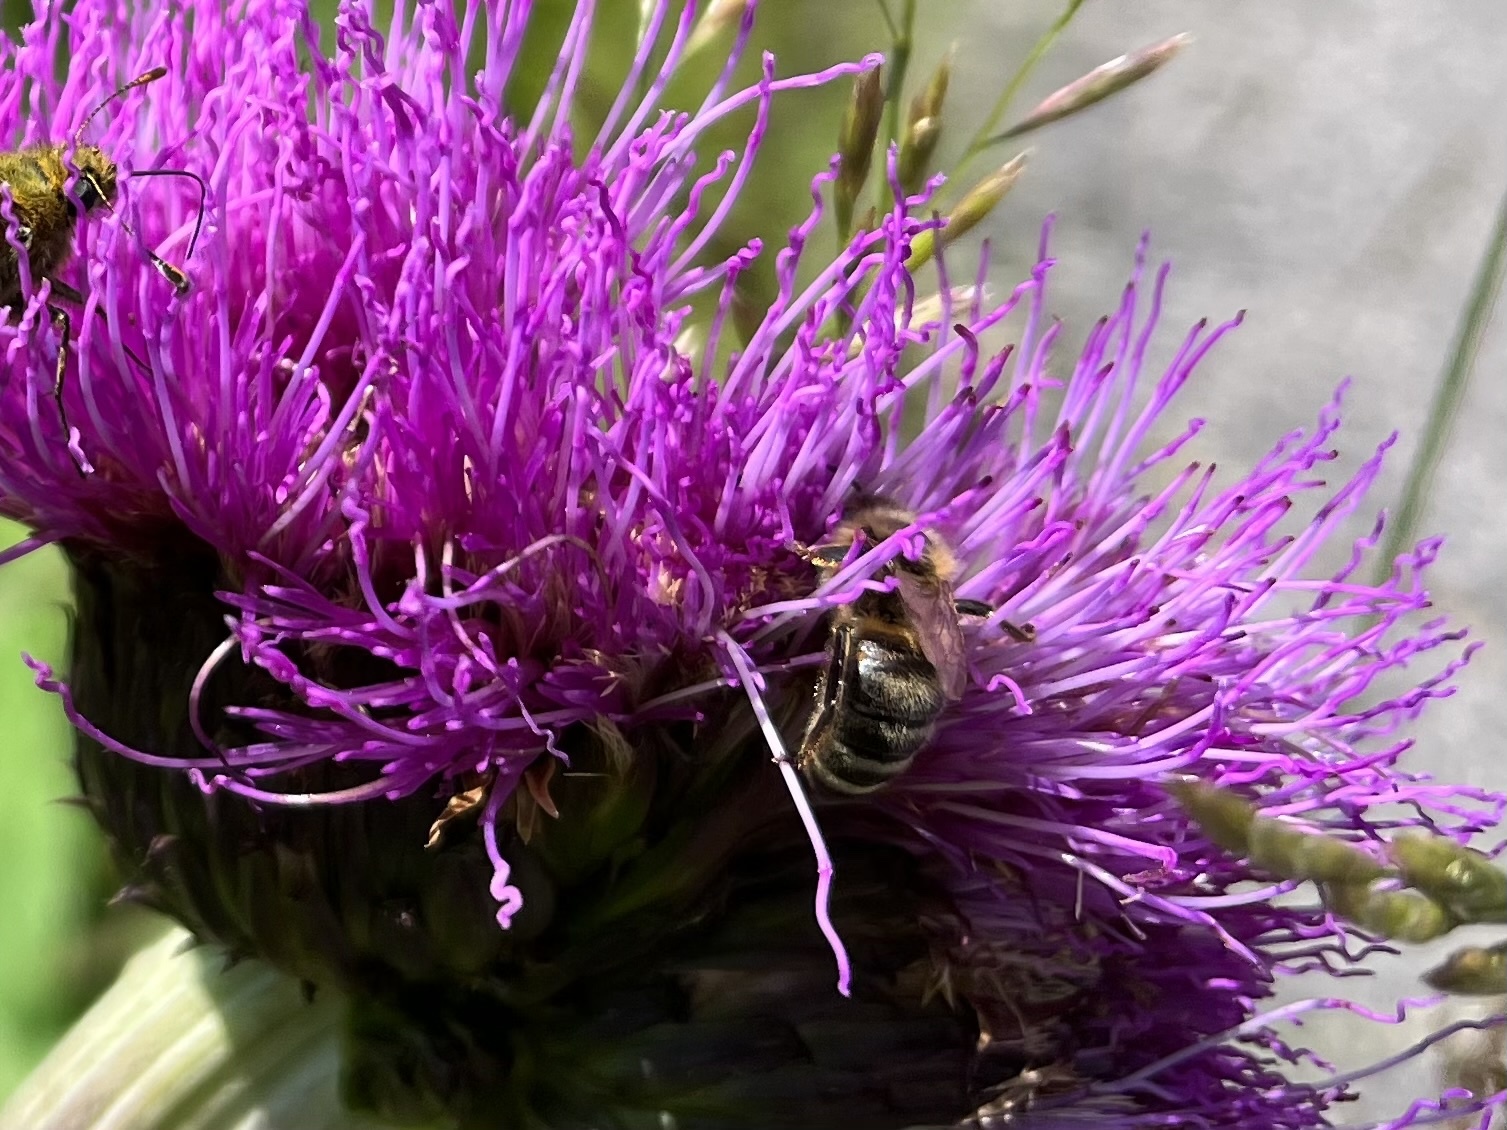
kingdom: Animalia
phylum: Arthropoda
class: Insecta
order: Hymenoptera
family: Apidae
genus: Apis
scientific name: Apis mellifera
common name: Honey bee
